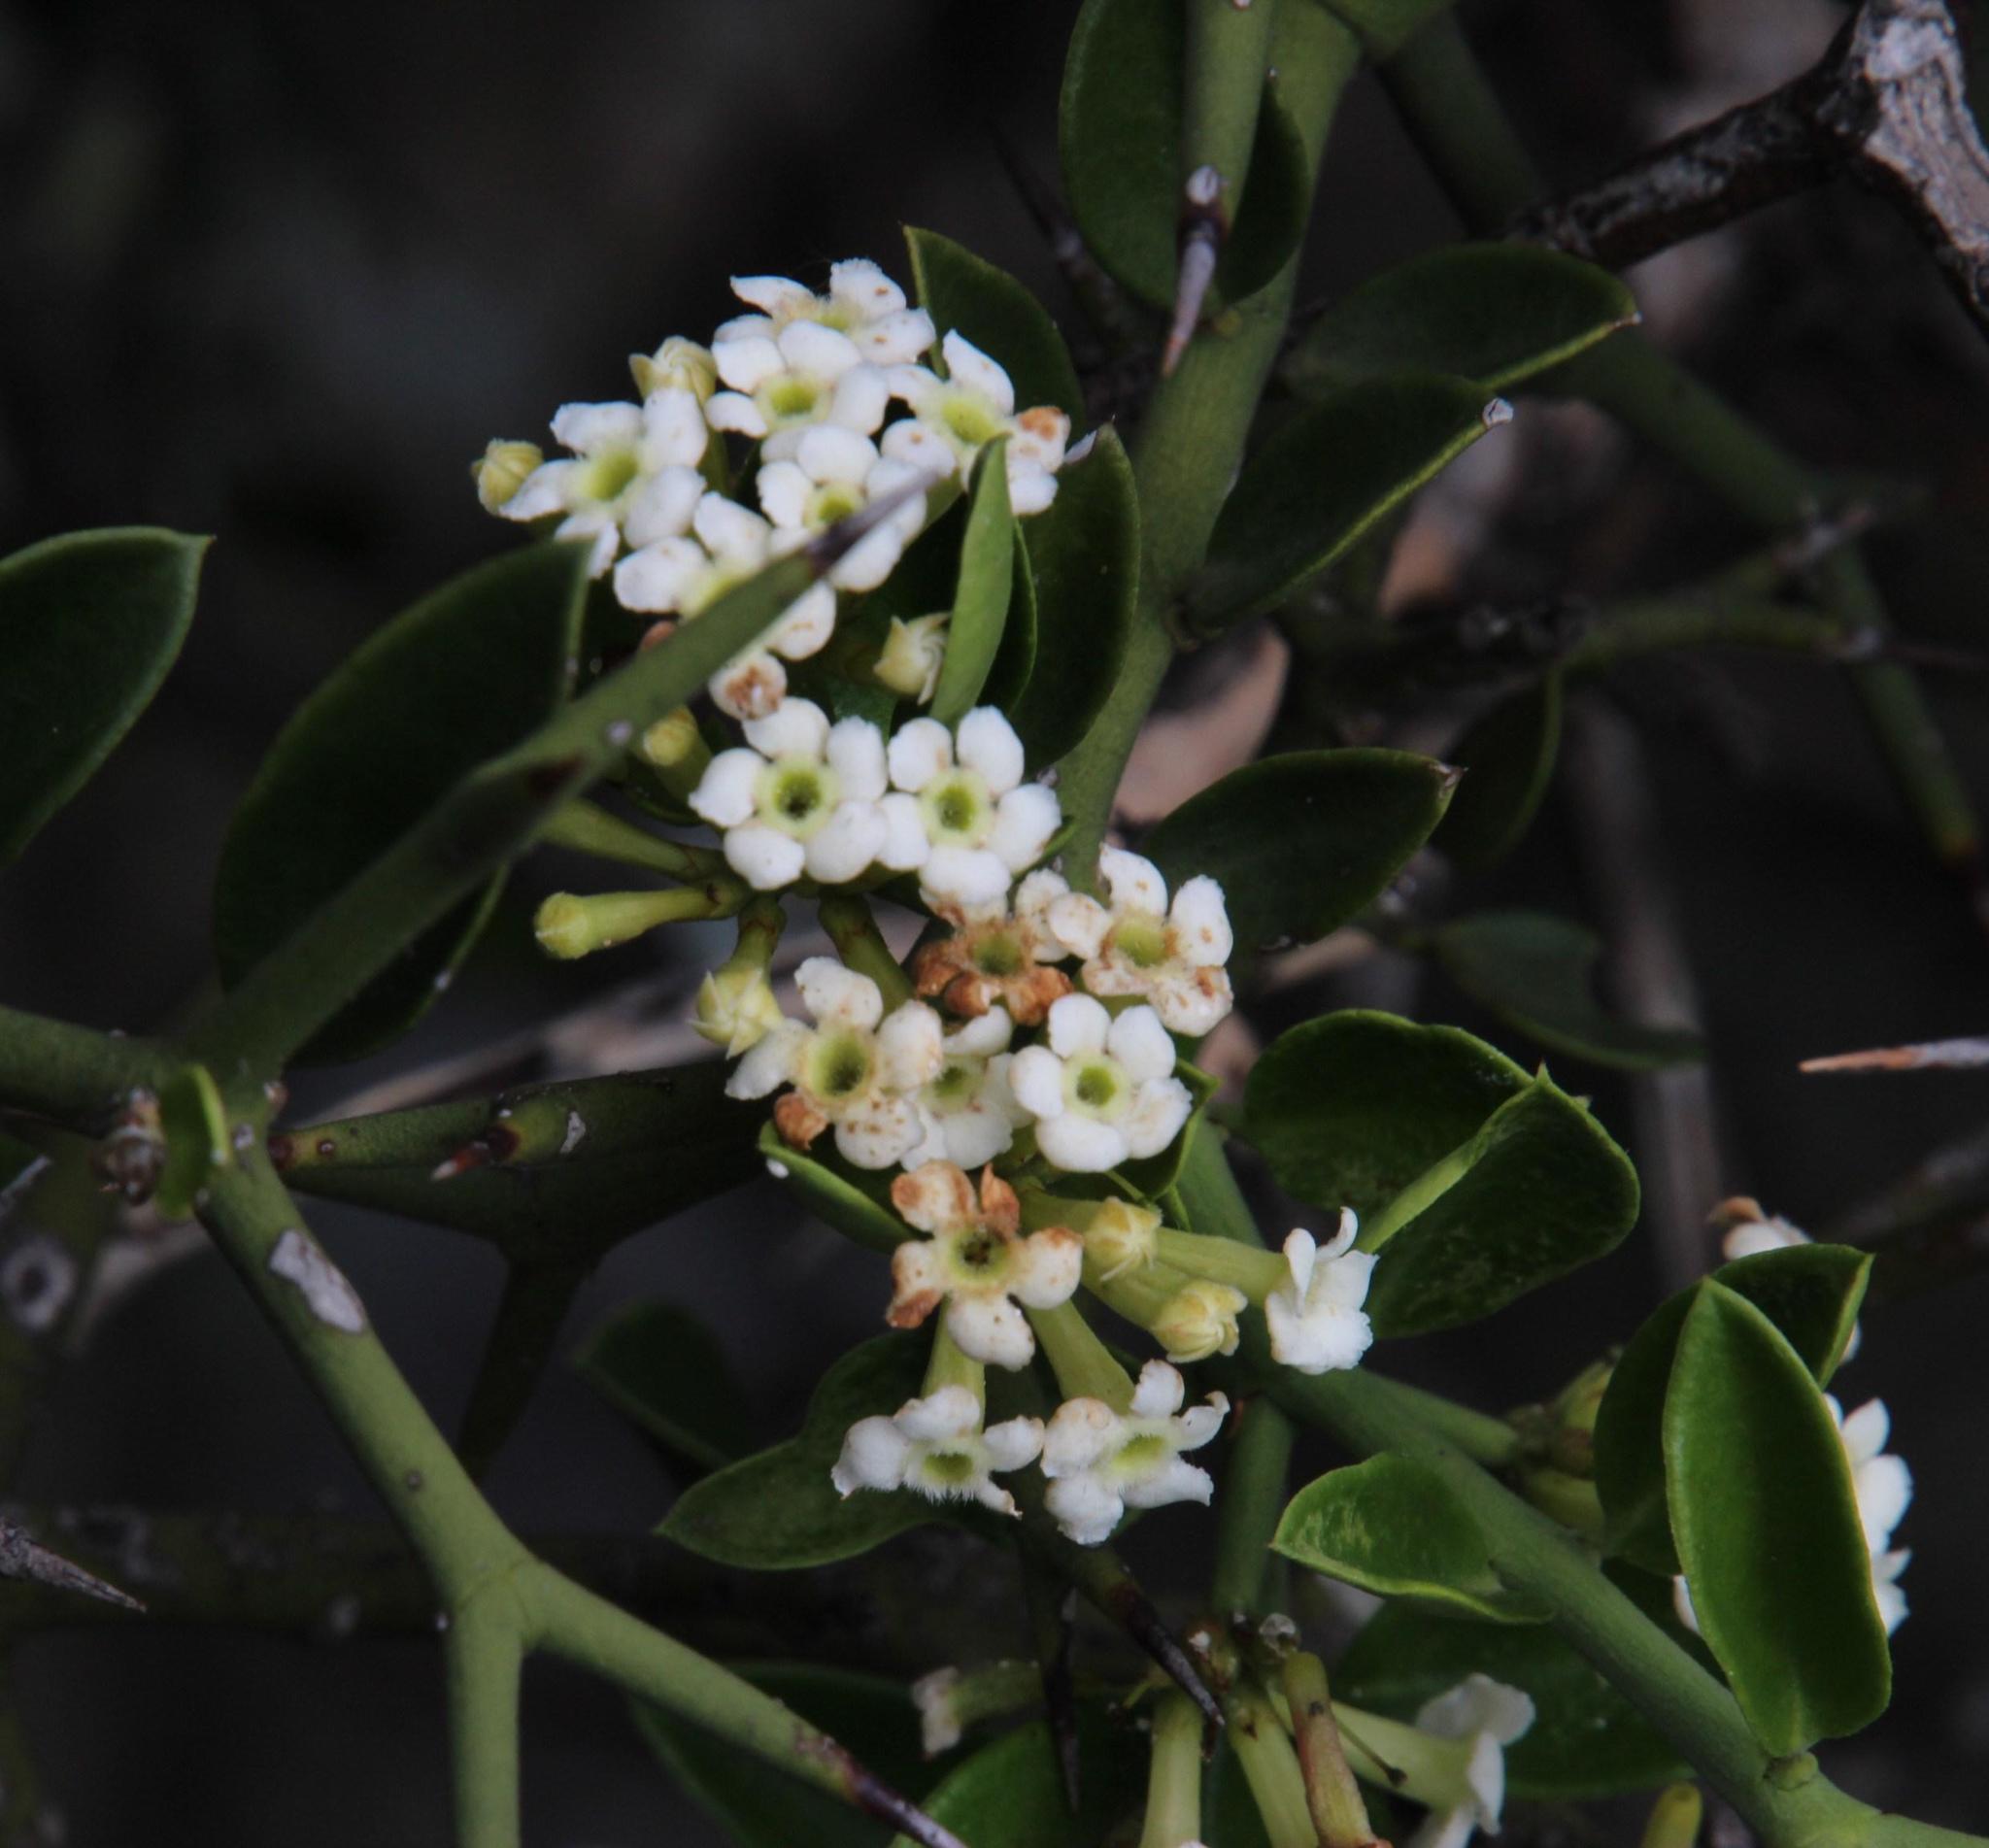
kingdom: Plantae
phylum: Tracheophyta
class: Magnoliopsida
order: Gentianales
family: Apocynaceae
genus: Carissa
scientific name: Carissa haematocarpa
